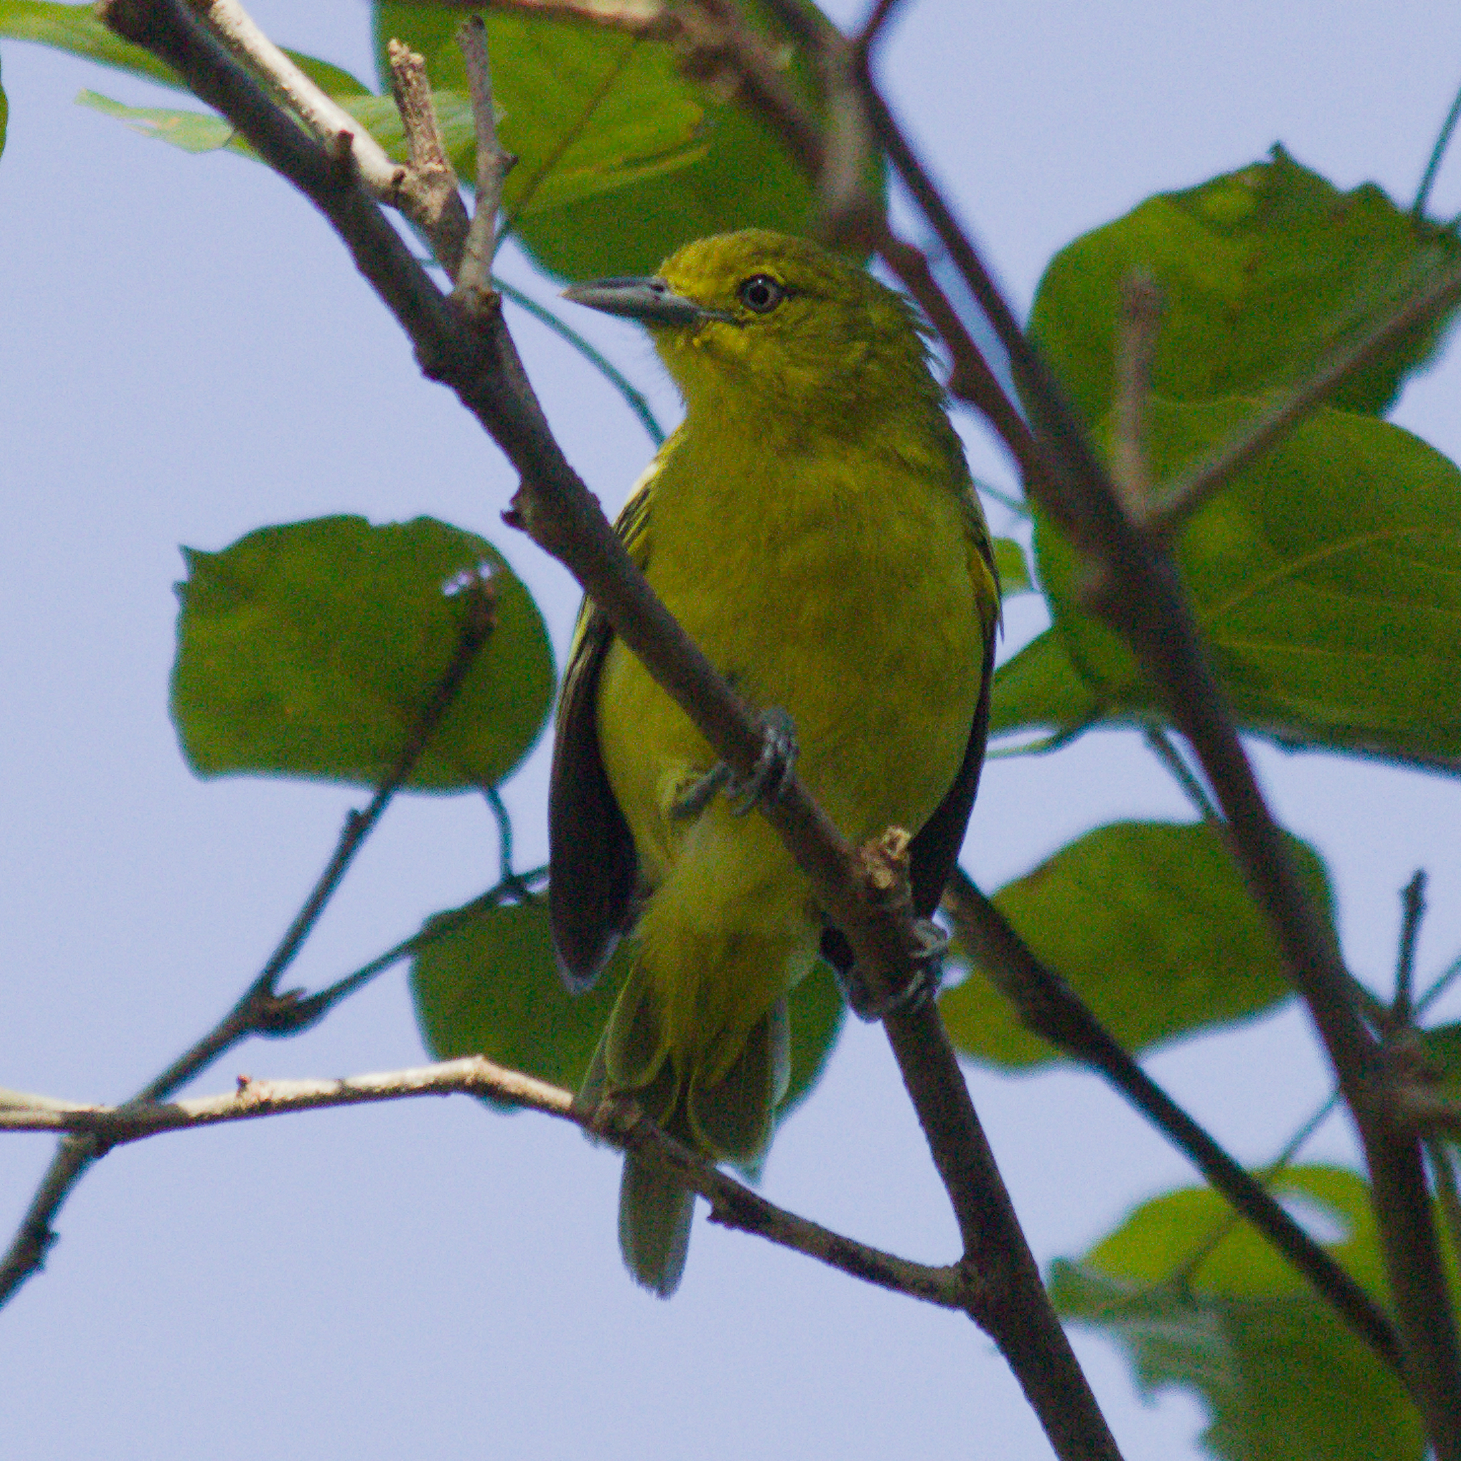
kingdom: Animalia
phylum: Chordata
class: Aves
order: Passeriformes
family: Aegithinidae
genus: Aegithina
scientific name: Aegithina tiphia
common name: Common iora
